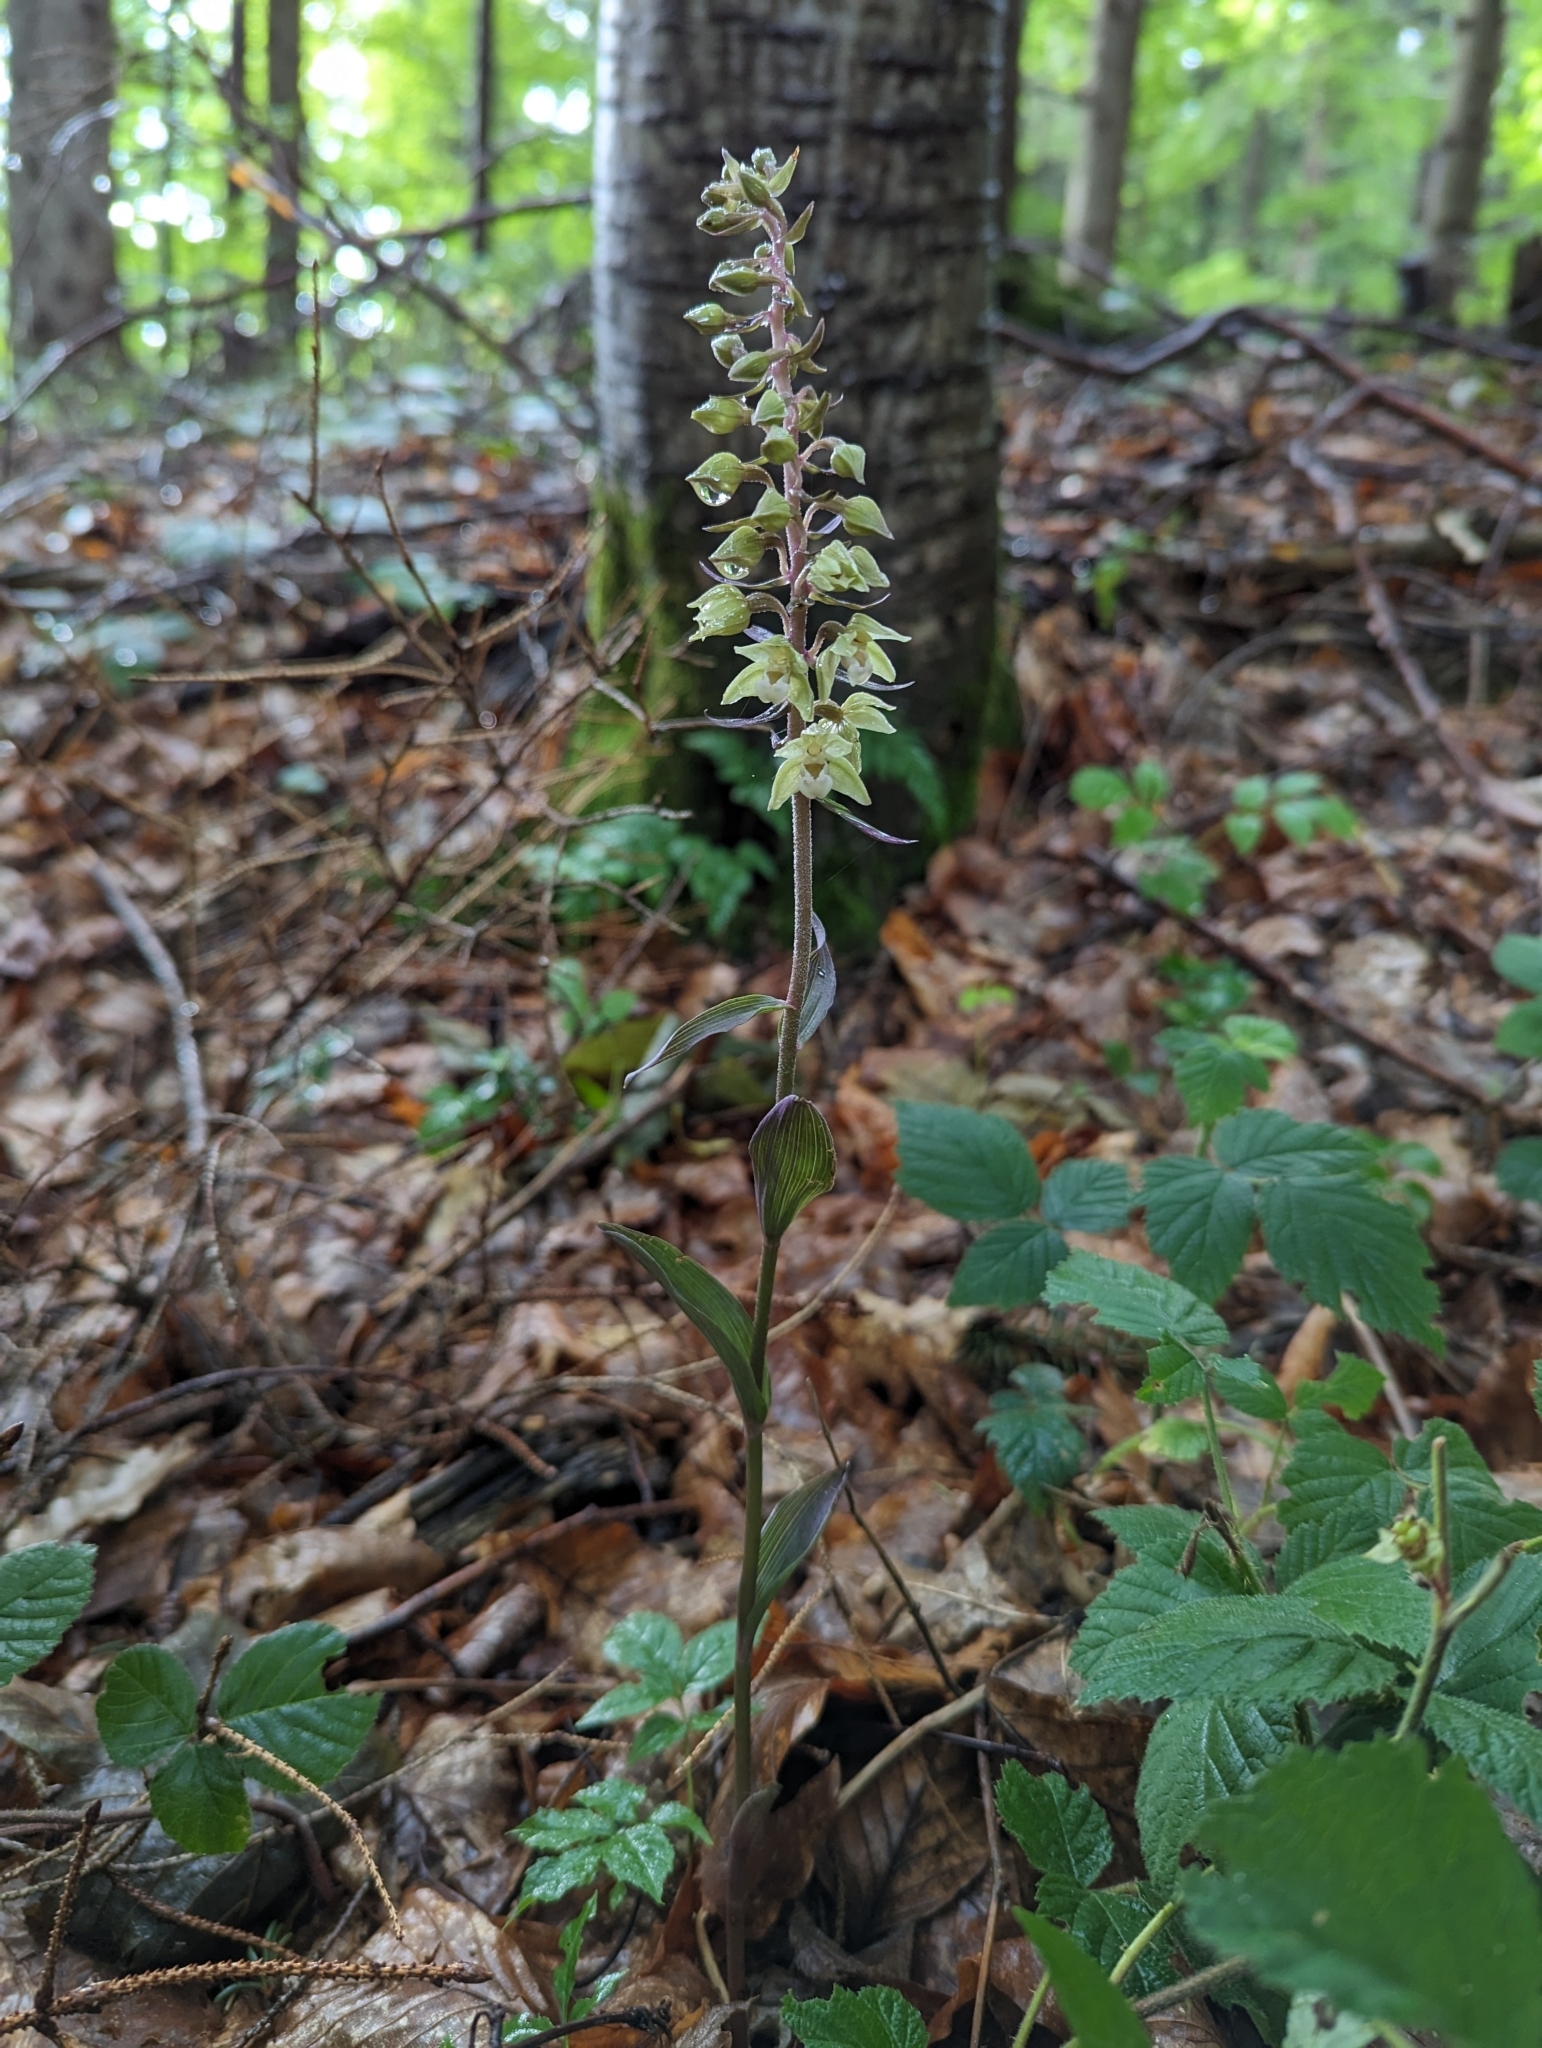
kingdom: Plantae
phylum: Tracheophyta
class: Liliopsida
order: Asparagales
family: Orchidaceae
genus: Epipactis
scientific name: Epipactis purpurata
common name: Violet helleborine
